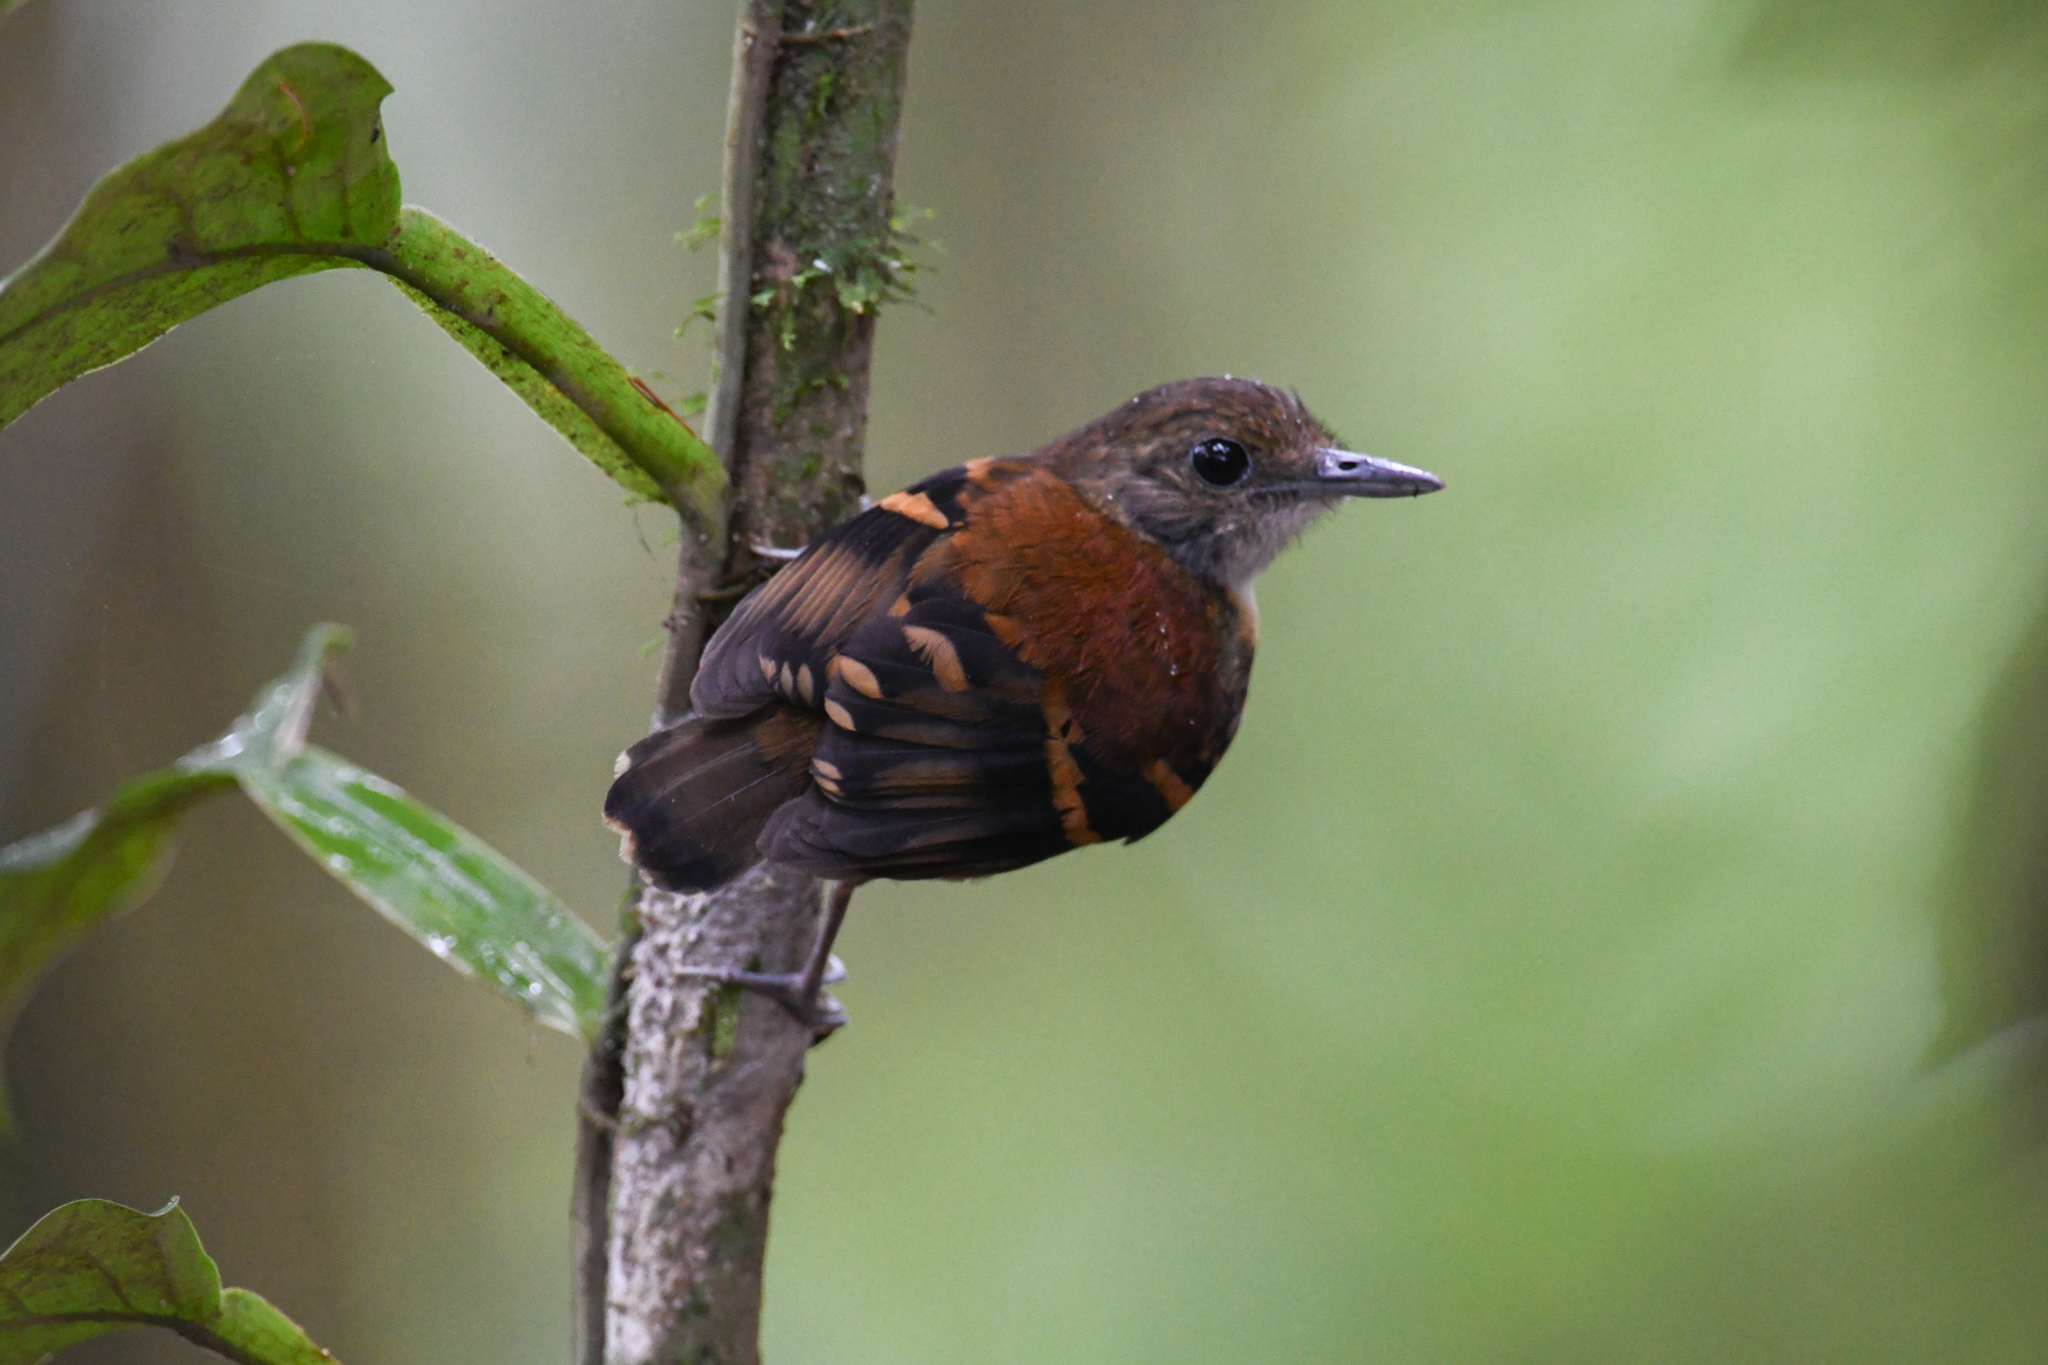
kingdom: Animalia
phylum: Chordata
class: Aves
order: Passeriformes
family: Thamnophilidae
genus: Hylophylax
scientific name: Hylophylax naevioides
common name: Spotted antbird
